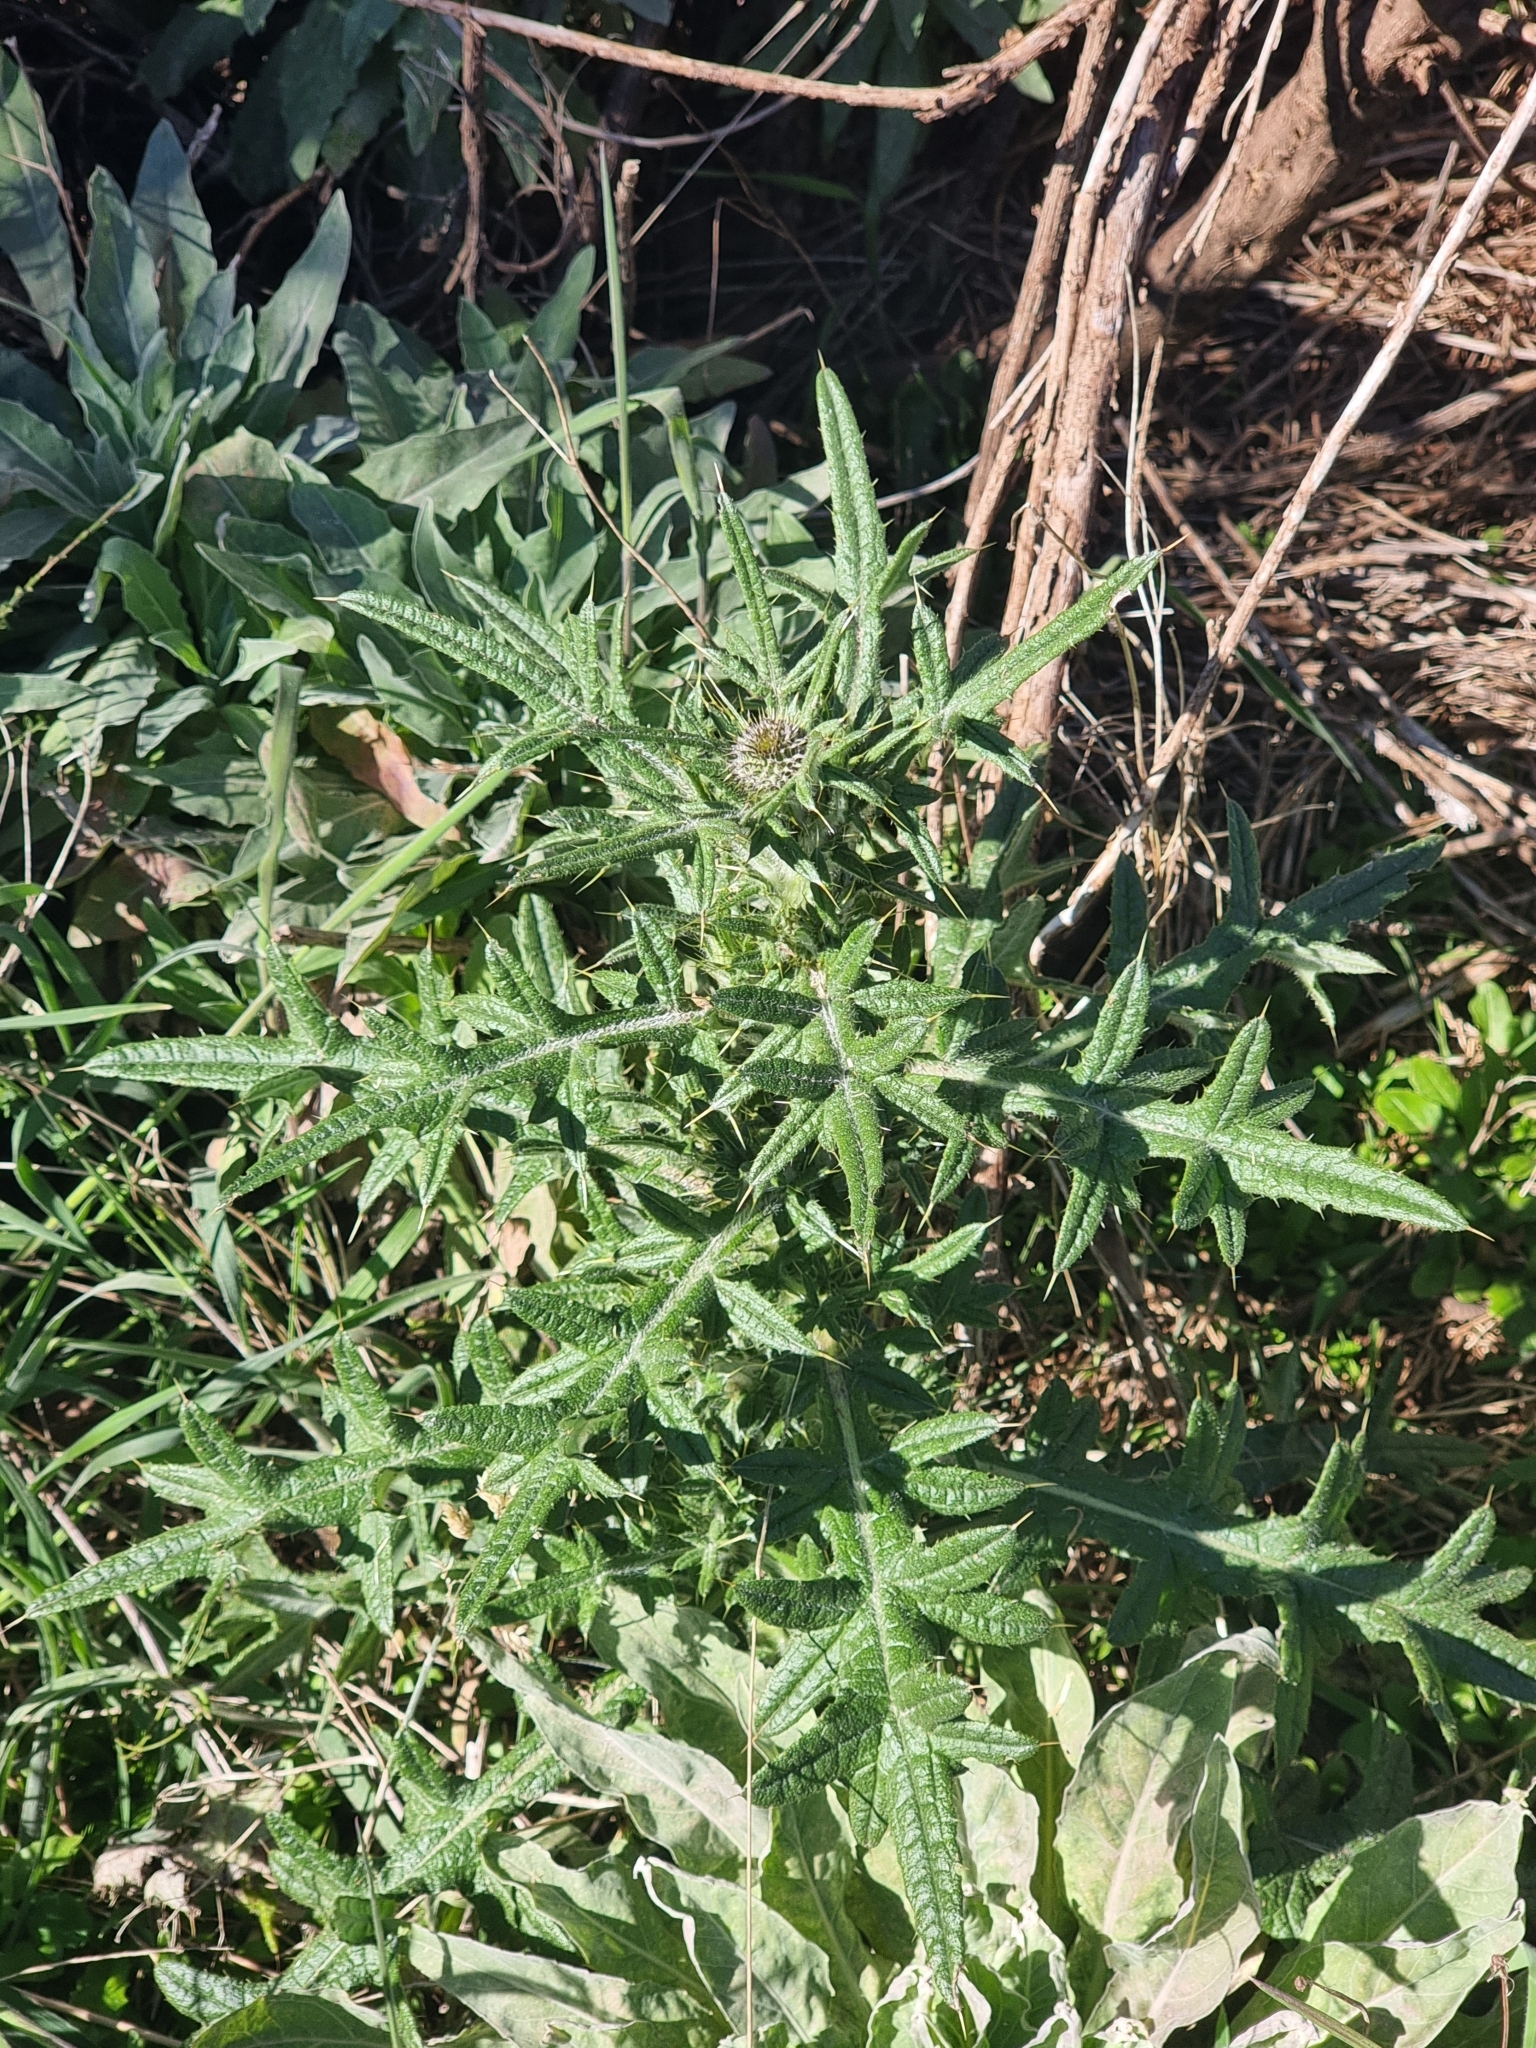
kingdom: Plantae
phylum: Tracheophyta
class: Magnoliopsida
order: Asterales
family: Asteraceae
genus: Cirsium
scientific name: Cirsium vulgare
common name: Bull thistle
